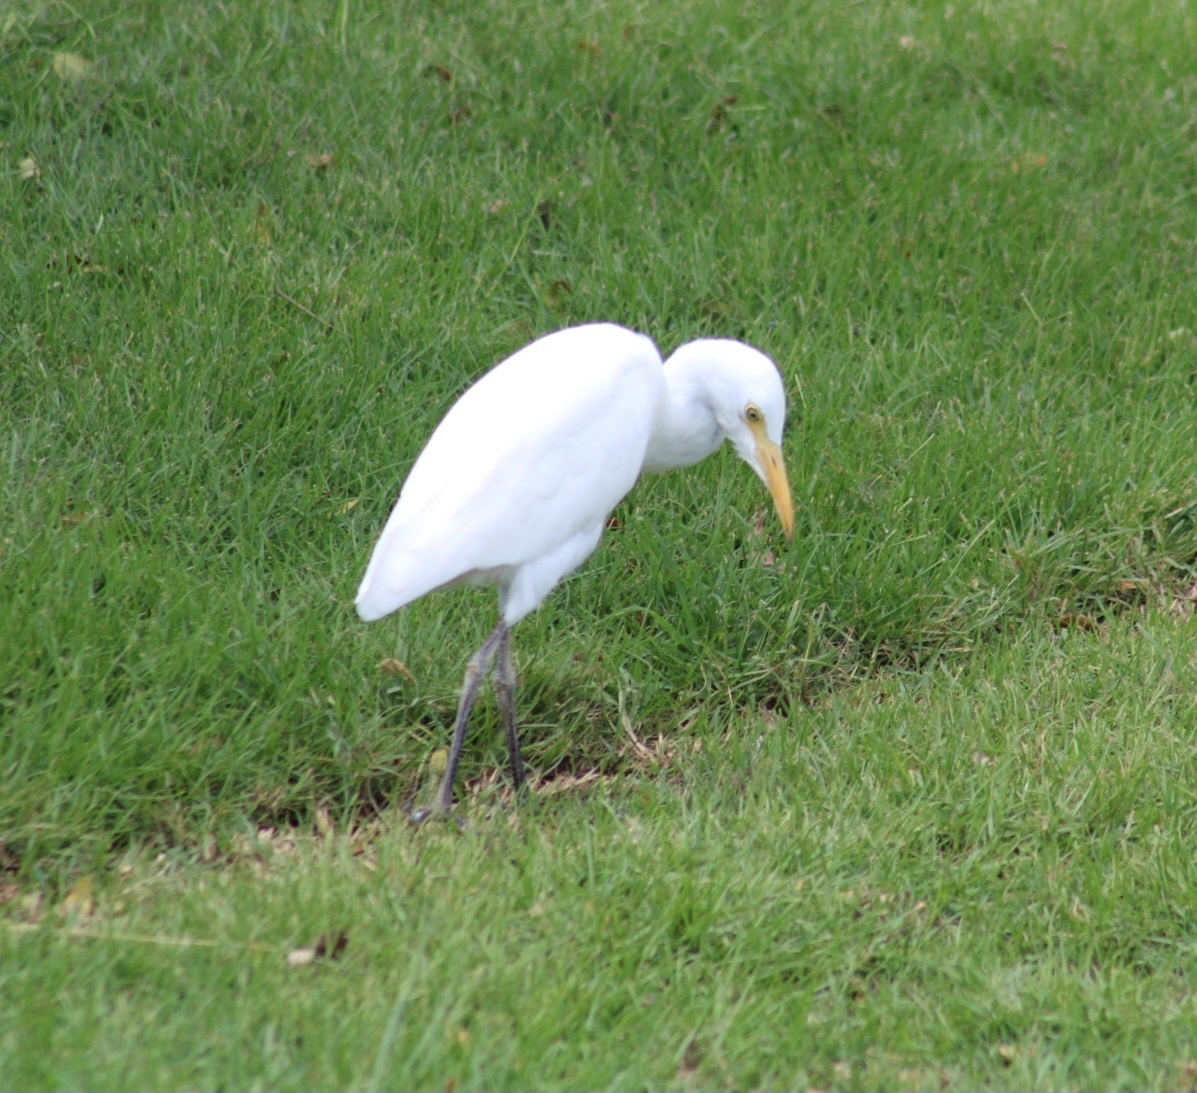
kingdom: Animalia
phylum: Chordata
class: Aves
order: Pelecaniformes
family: Ardeidae
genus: Bubulcus
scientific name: Bubulcus ibis
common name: Cattle egret
